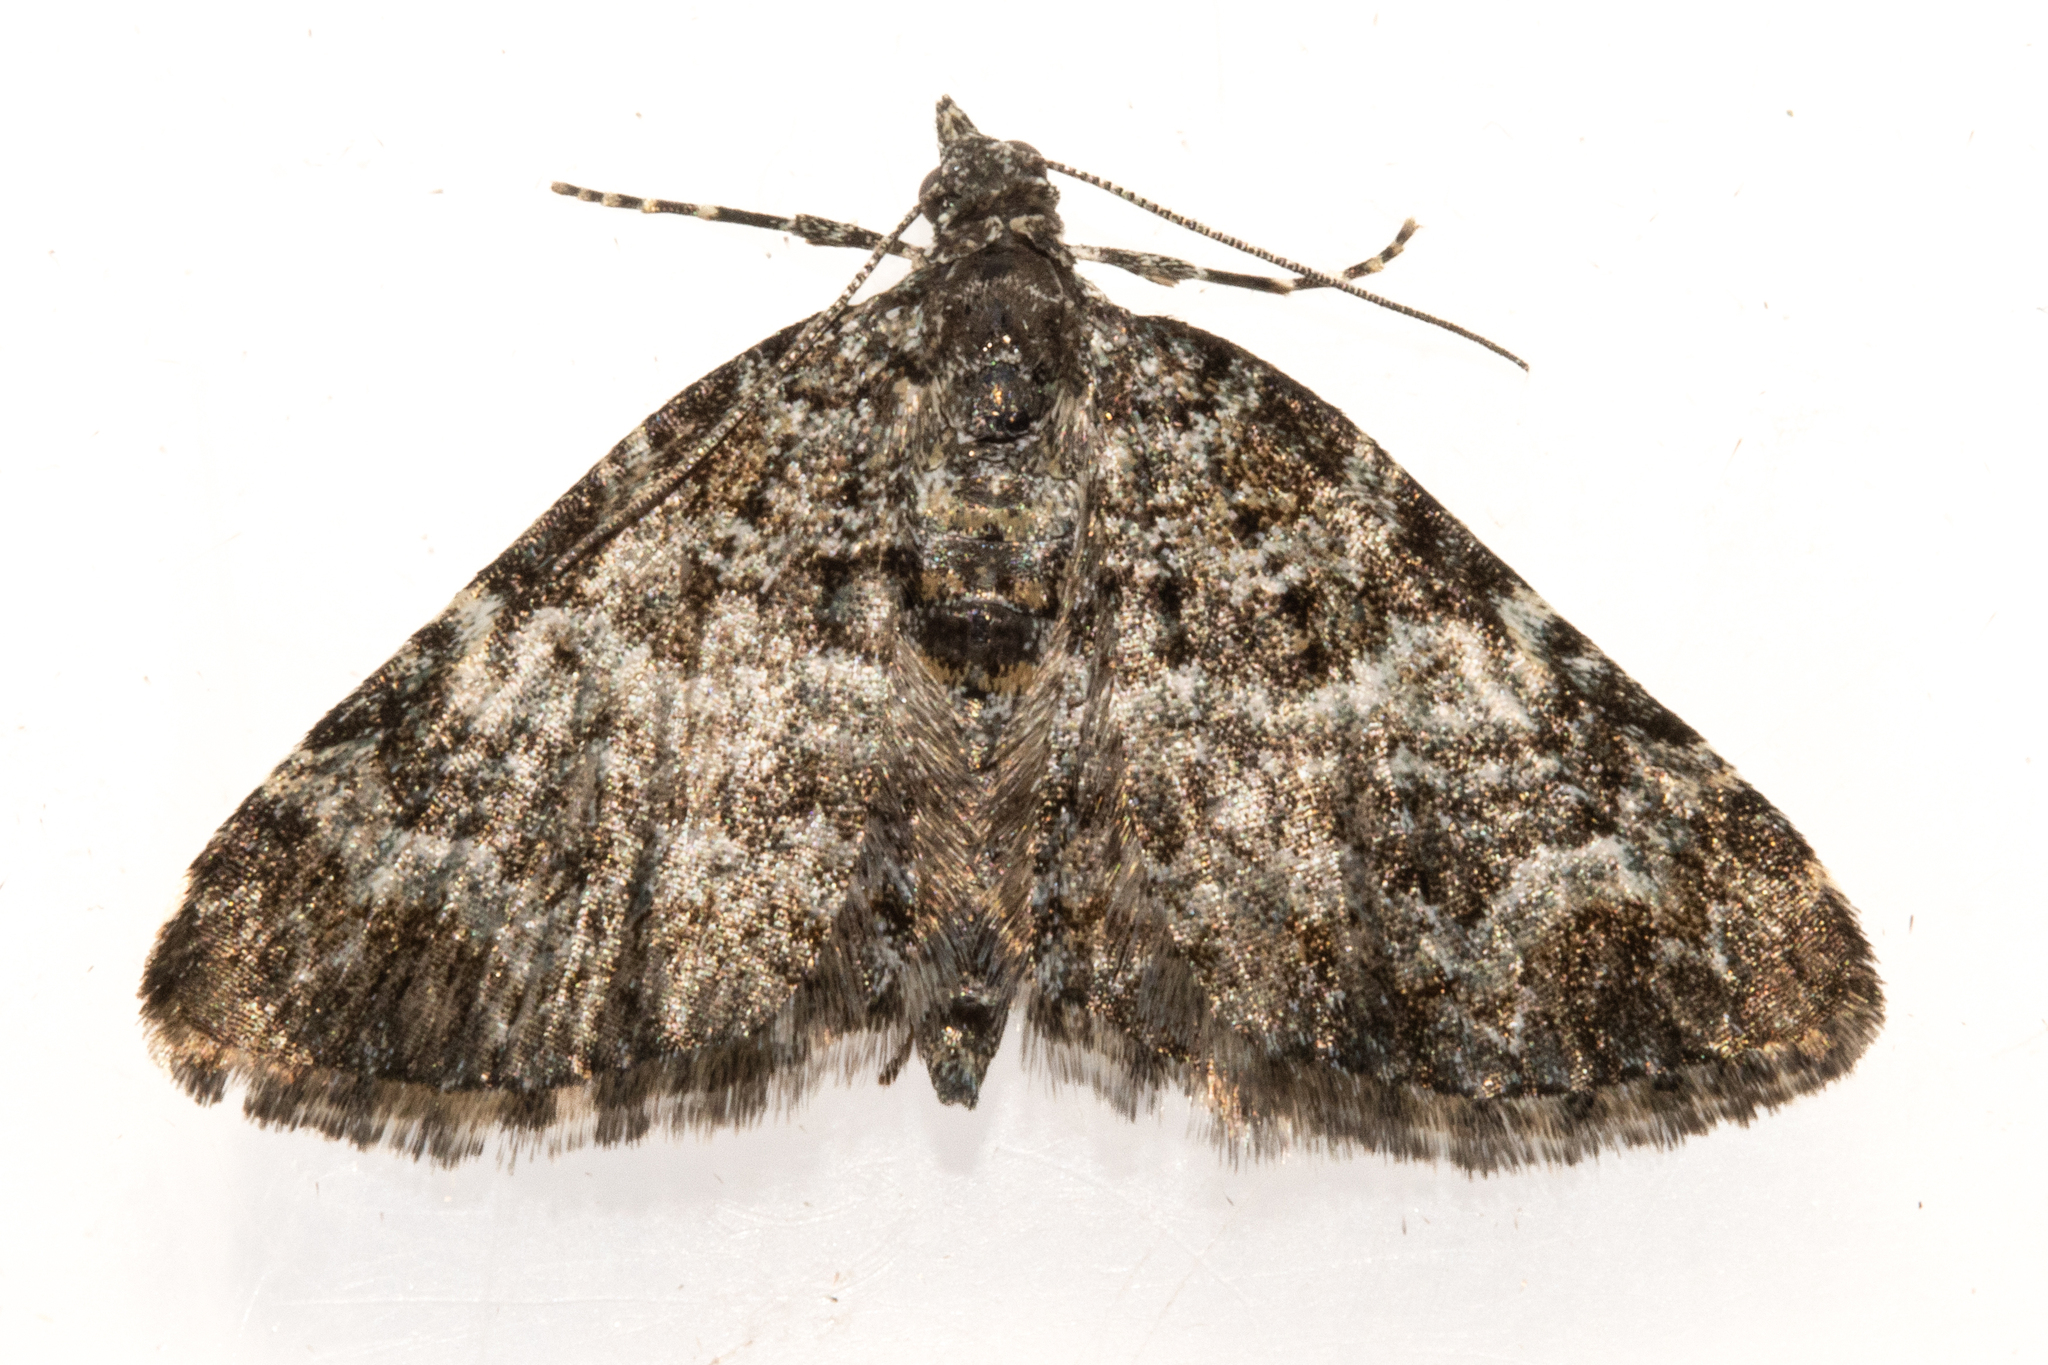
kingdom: Animalia
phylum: Arthropoda
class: Insecta
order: Lepidoptera
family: Geometridae
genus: Chloroclystis
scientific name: Chloroclystis nereis
